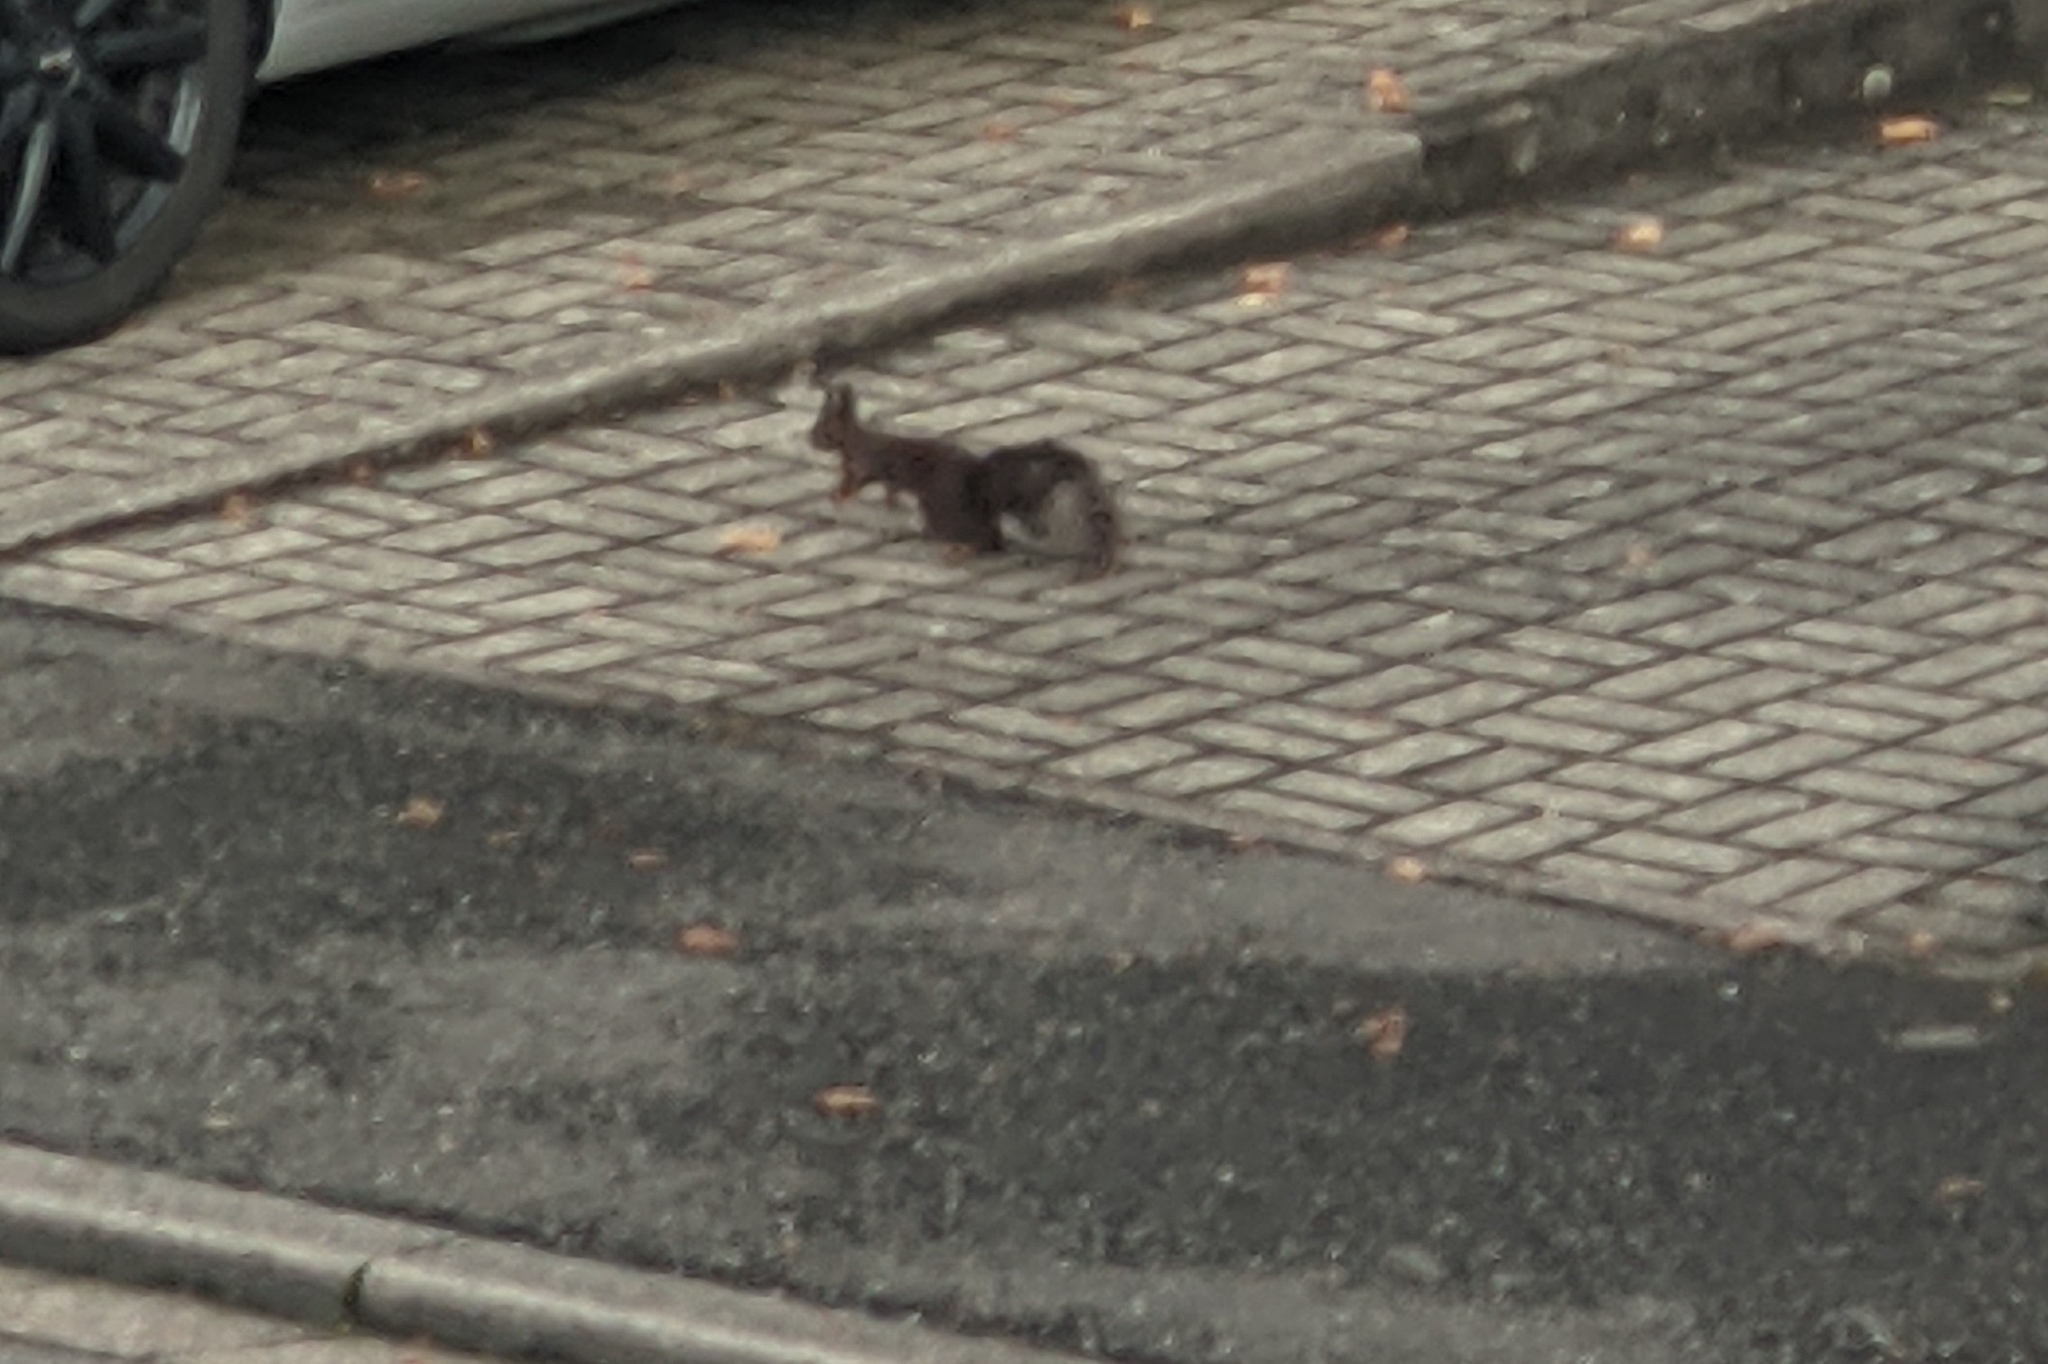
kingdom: Animalia
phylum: Chordata
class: Mammalia
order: Rodentia
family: Sciuridae
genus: Sciurus
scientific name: Sciurus vulgaris
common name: Eurasian red squirrel
